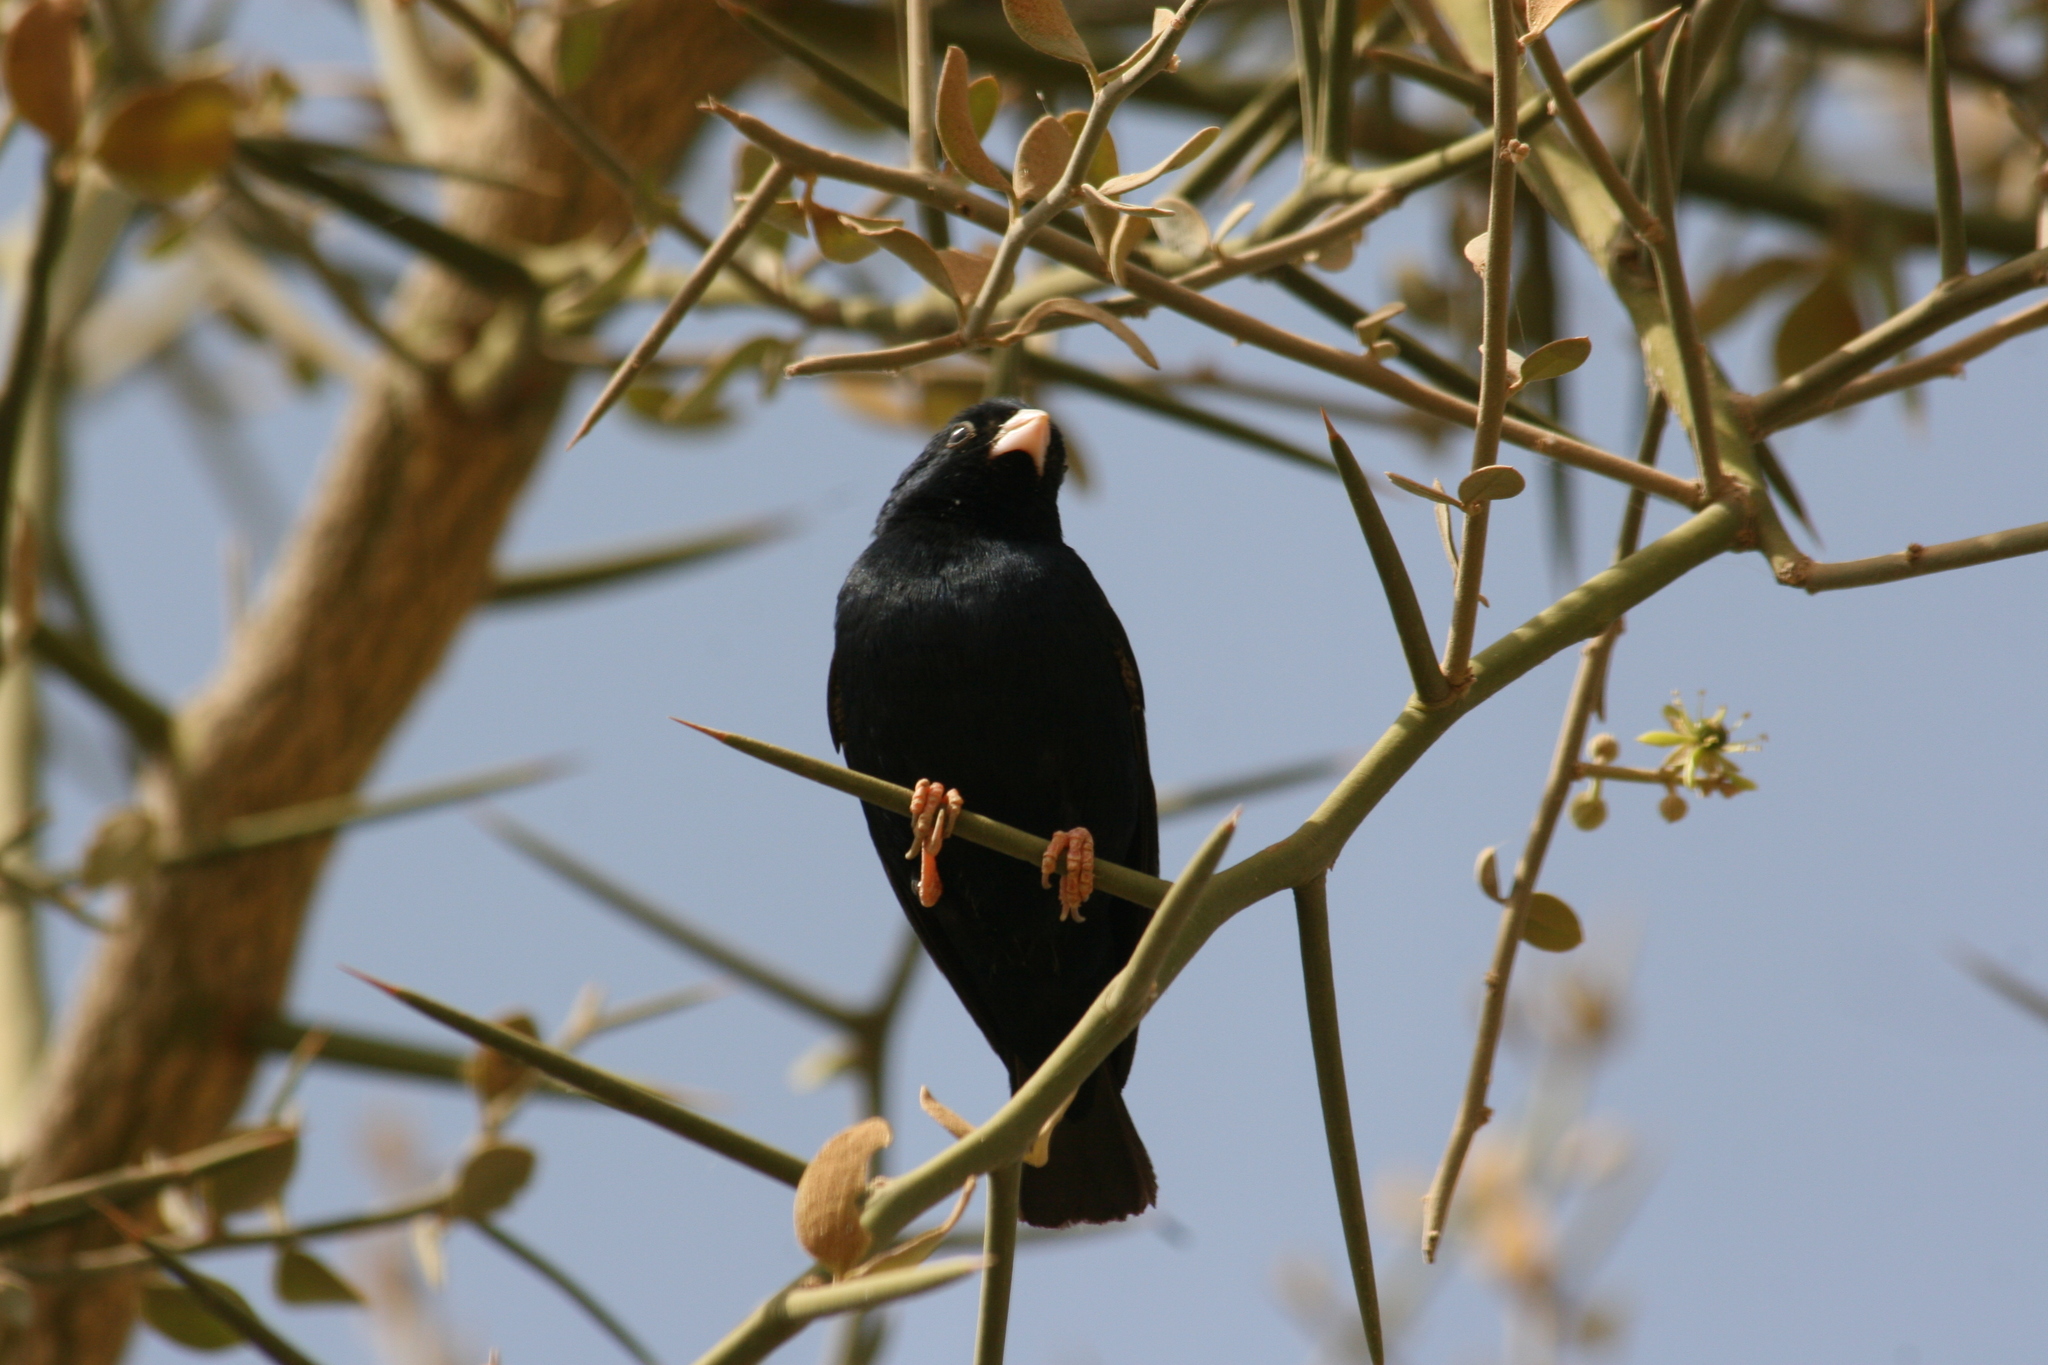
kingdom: Animalia
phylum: Chordata
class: Aves
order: Passeriformes
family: Viduidae
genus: Vidua
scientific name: Vidua chalybeata
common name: Village indigobird
